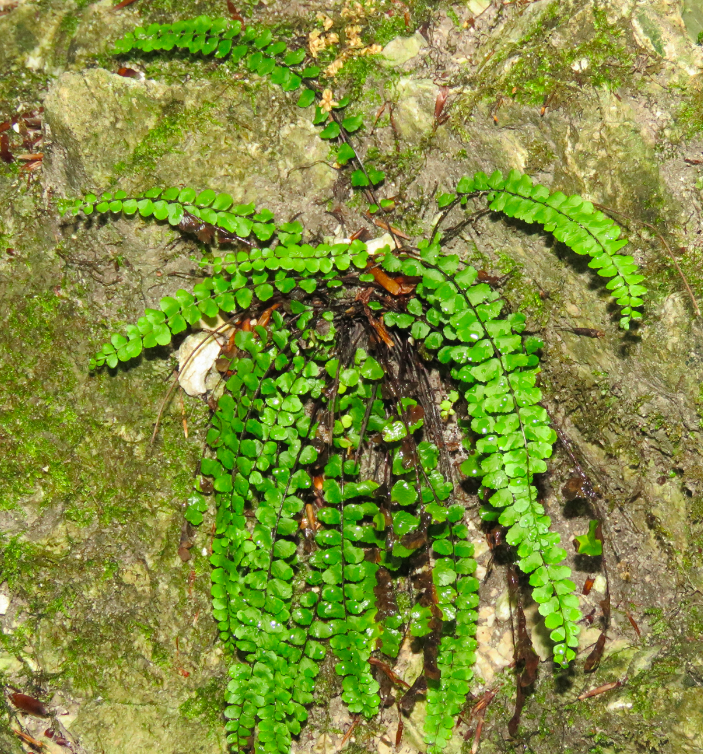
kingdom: Plantae
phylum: Tracheophyta
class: Polypodiopsida
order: Polypodiales
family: Aspleniaceae
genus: Asplenium
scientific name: Asplenium trichomanes
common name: Maidenhair spleenwort
